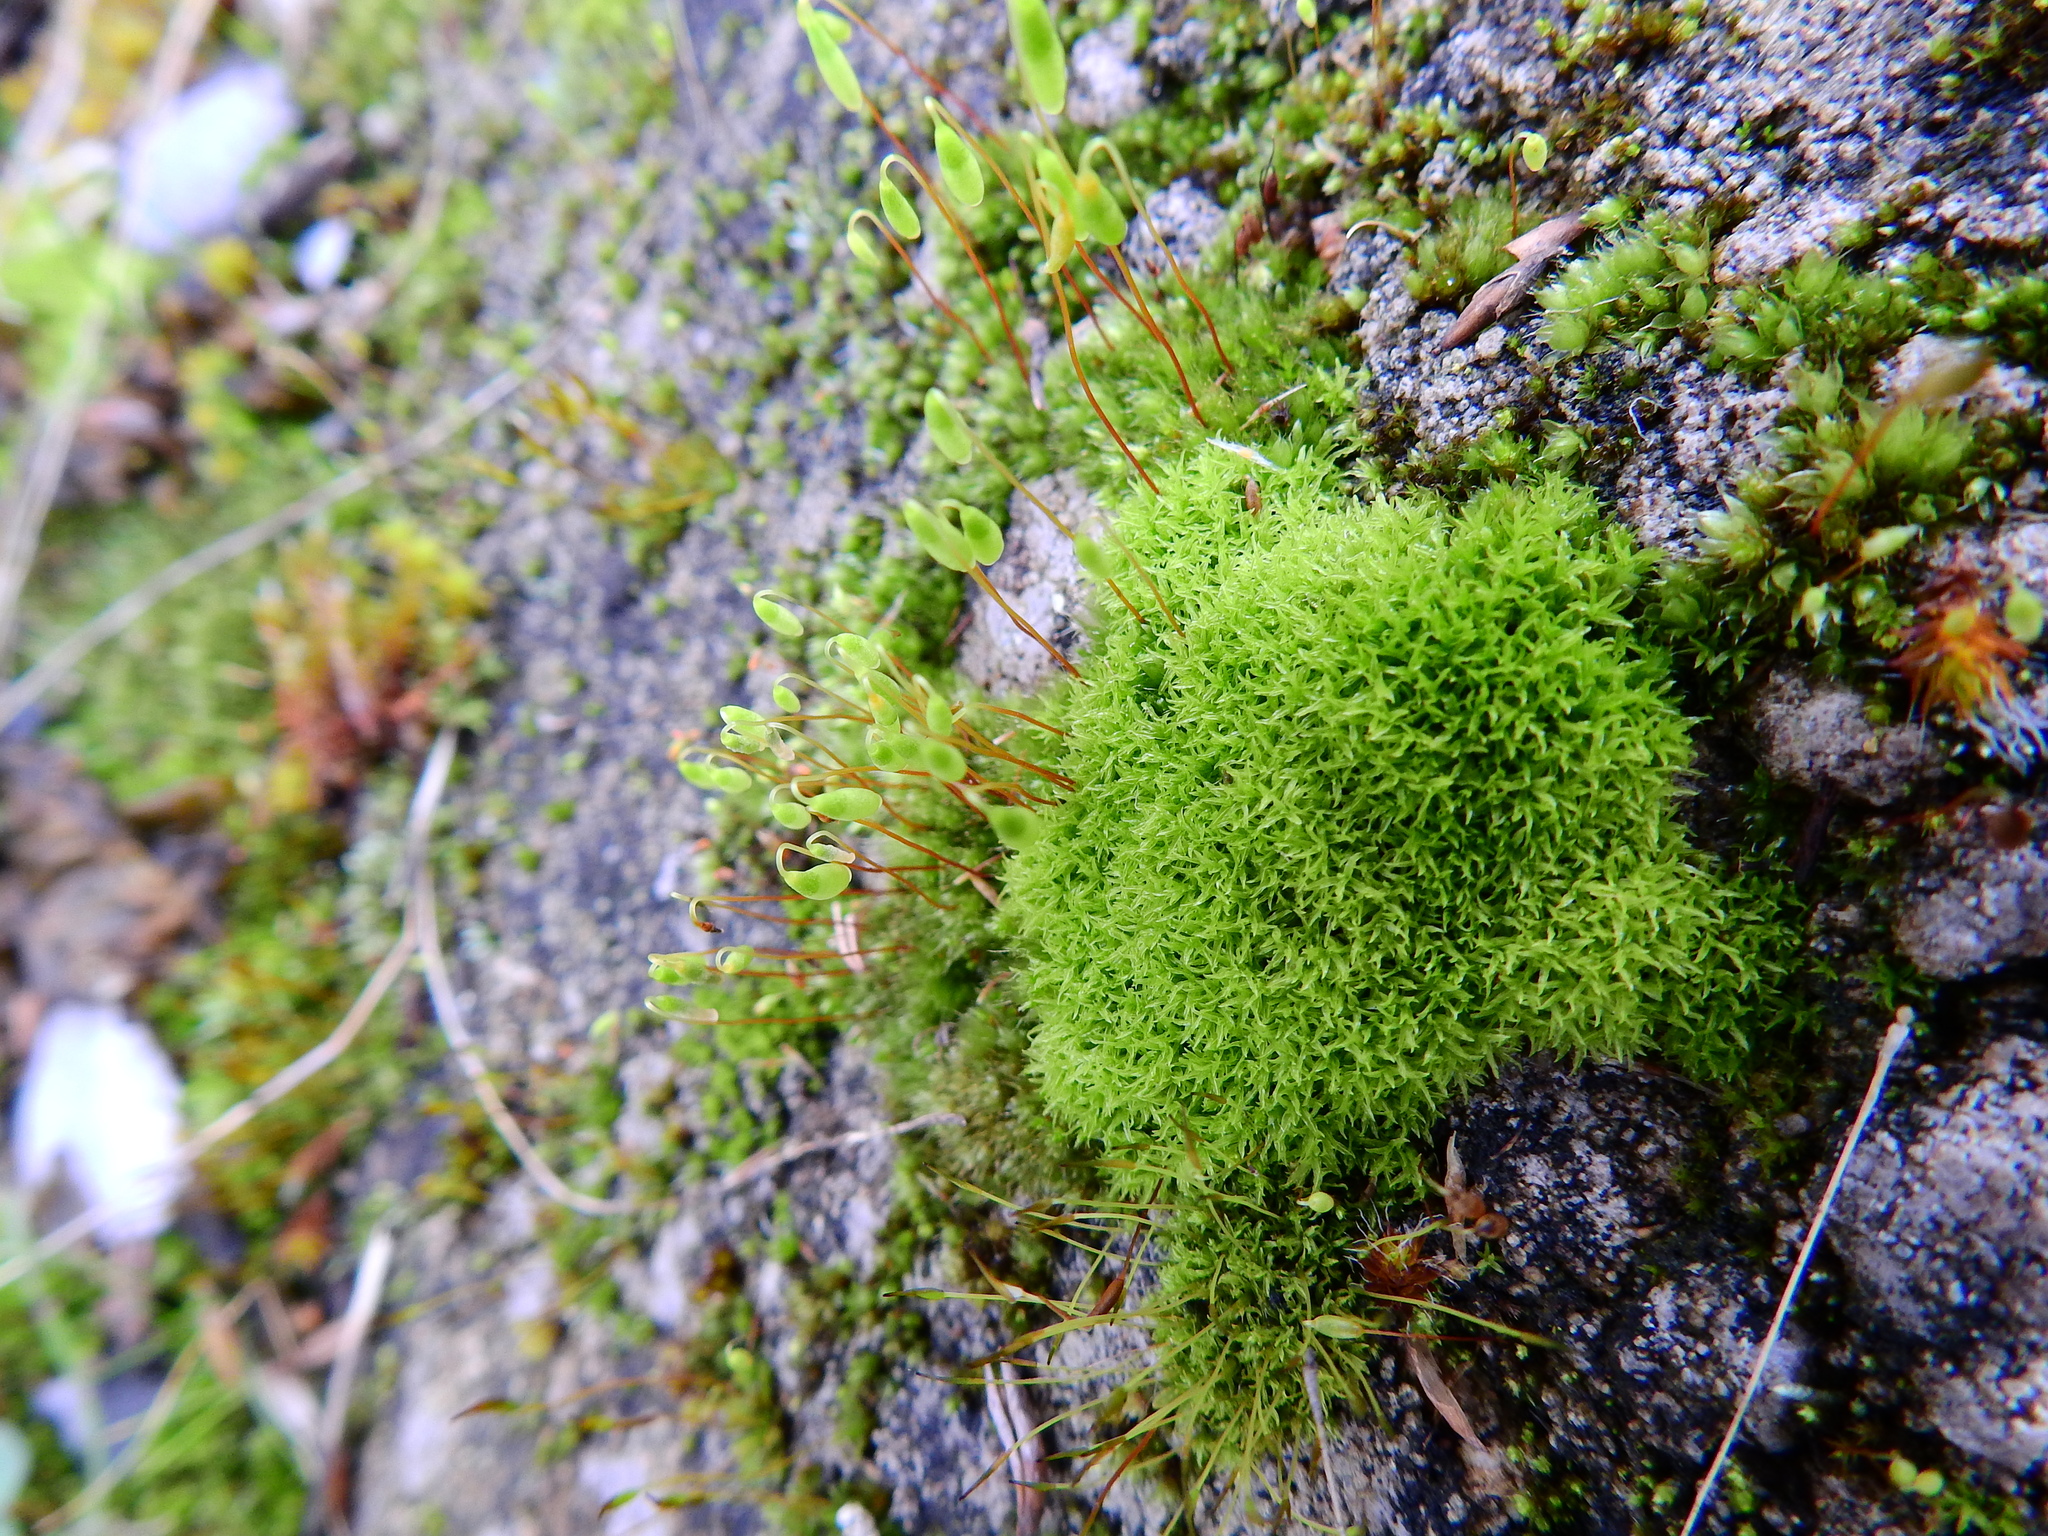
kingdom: Plantae
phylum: Bryophyta
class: Bryopsida
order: Pottiales
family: Pottiaceae
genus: Barbula
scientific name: Barbula unguiculata
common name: Prickly beard moss
